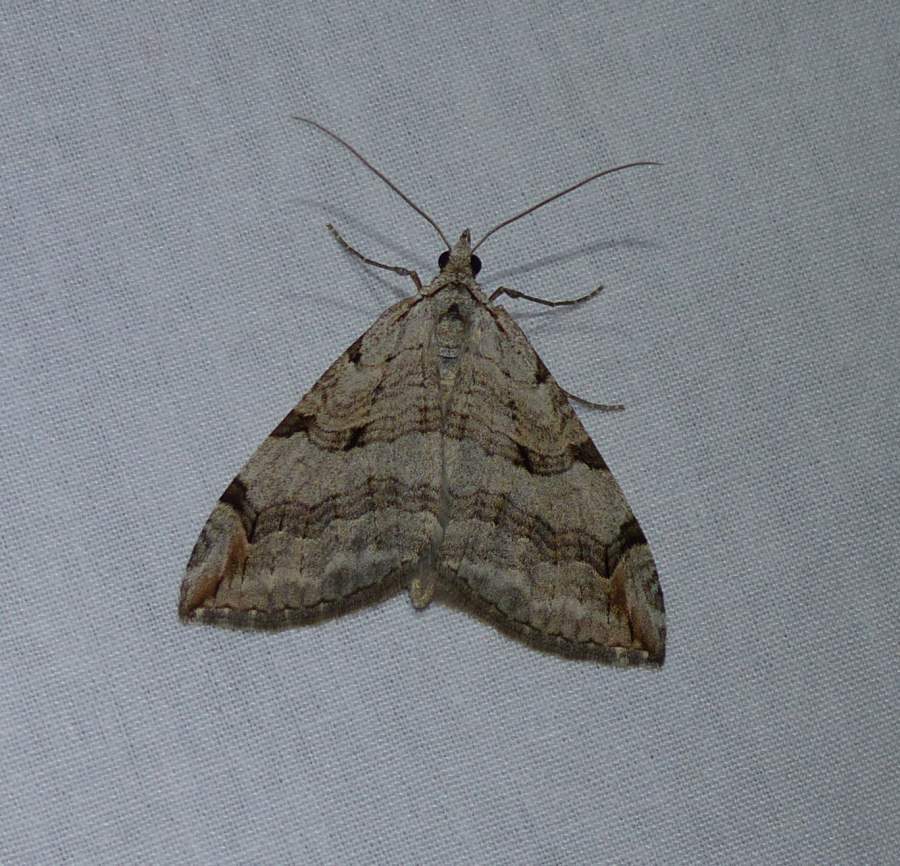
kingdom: Animalia
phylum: Arthropoda
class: Insecta
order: Lepidoptera
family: Geometridae
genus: Aplocera
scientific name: Aplocera plagiata
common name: Treble-bar
